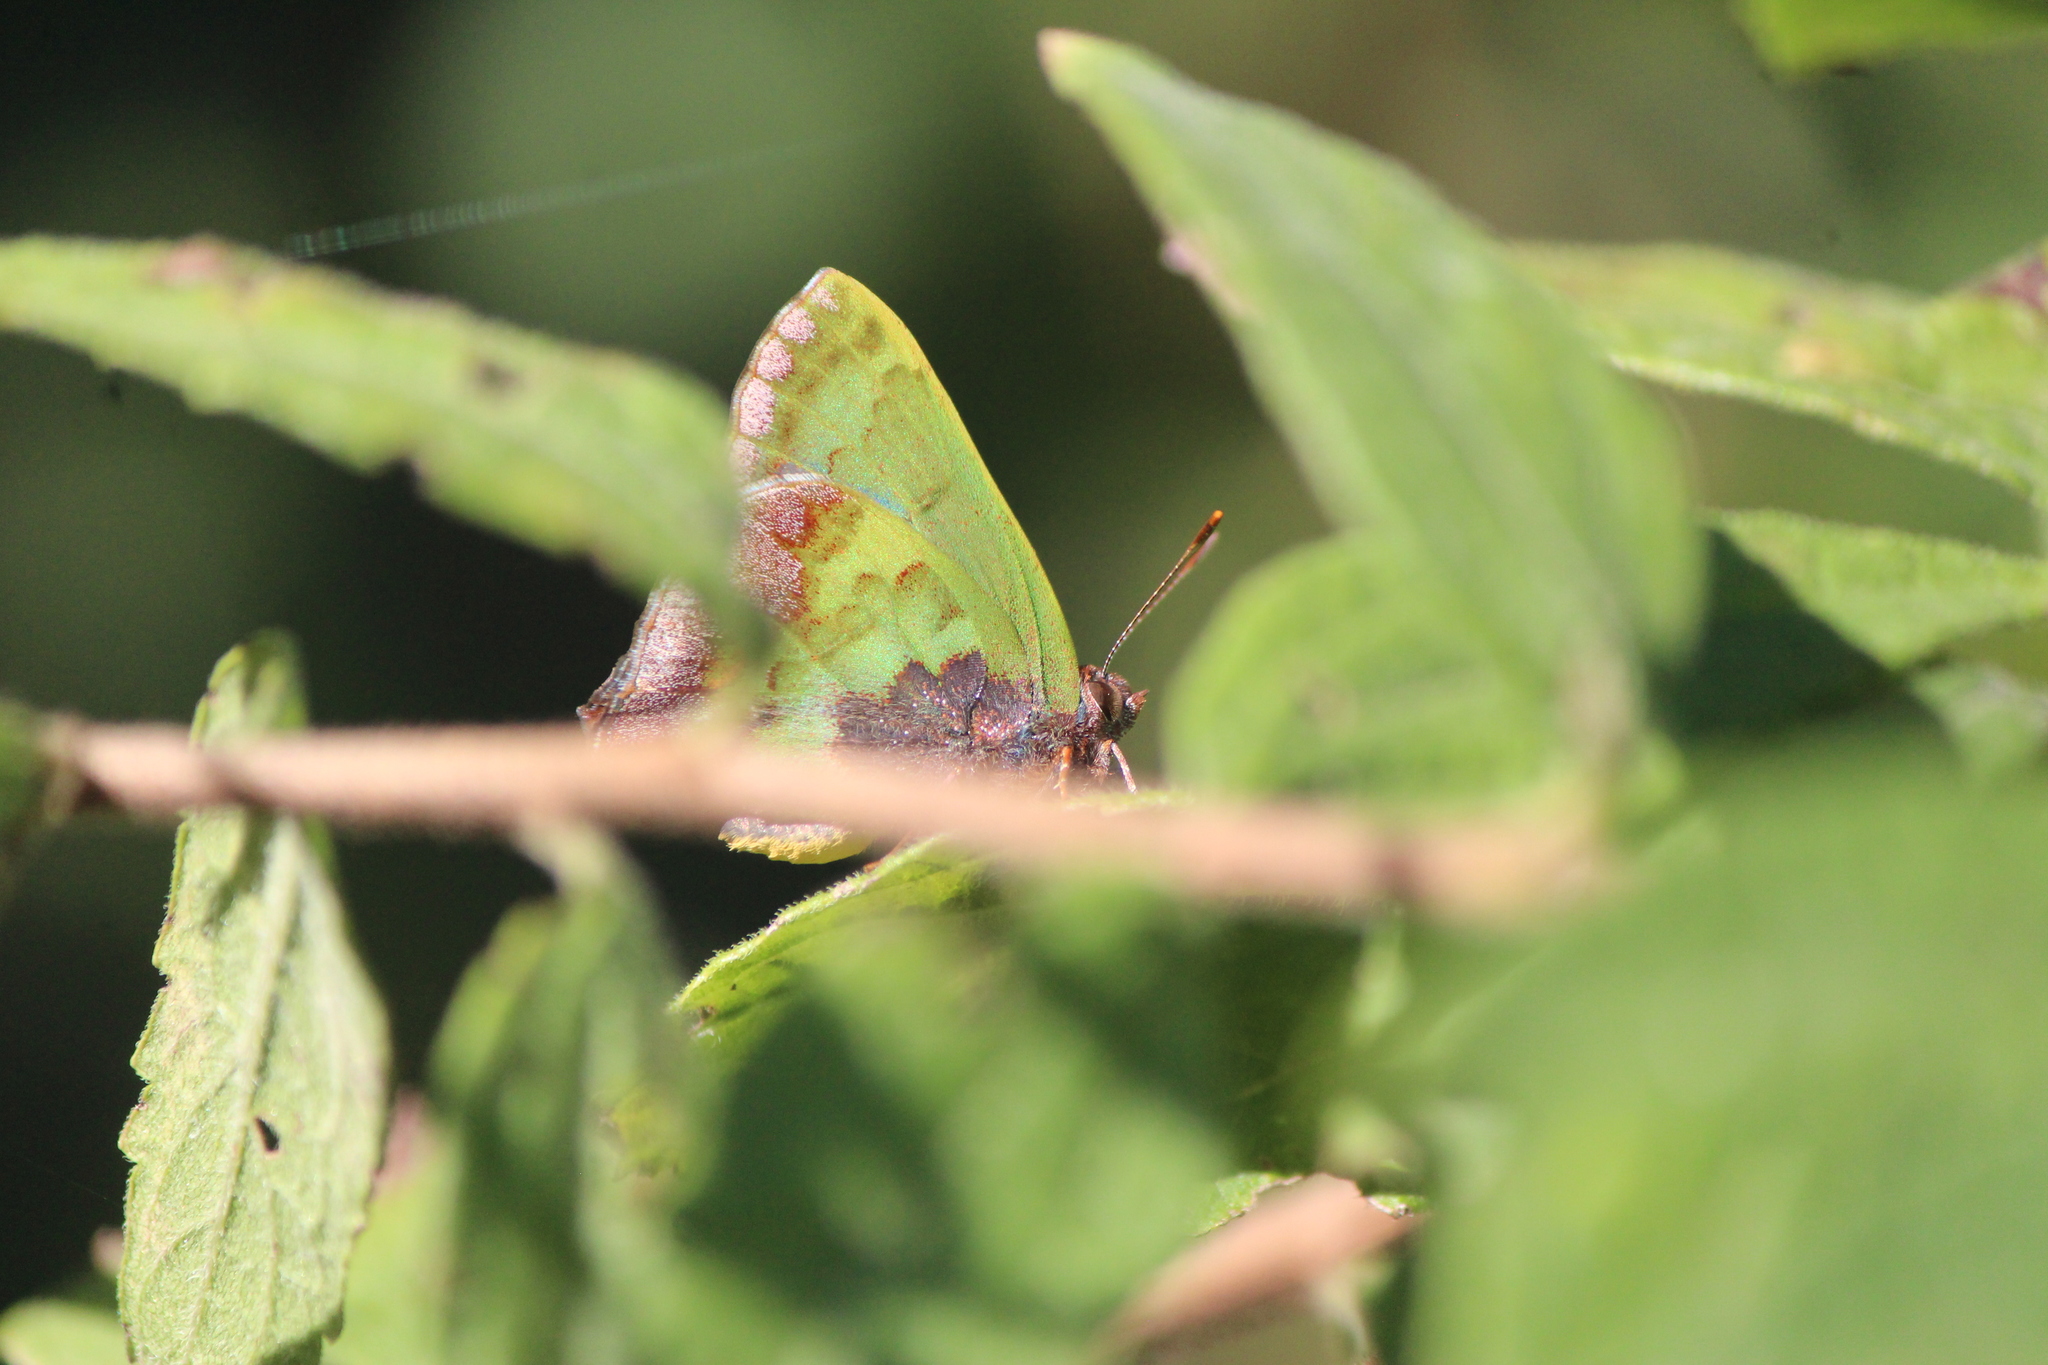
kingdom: Animalia
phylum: Arthropoda
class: Insecta
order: Lepidoptera
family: Lycaenidae
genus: Cyanophrys
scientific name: Cyanophrys agricolor
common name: Stained greenstreak
